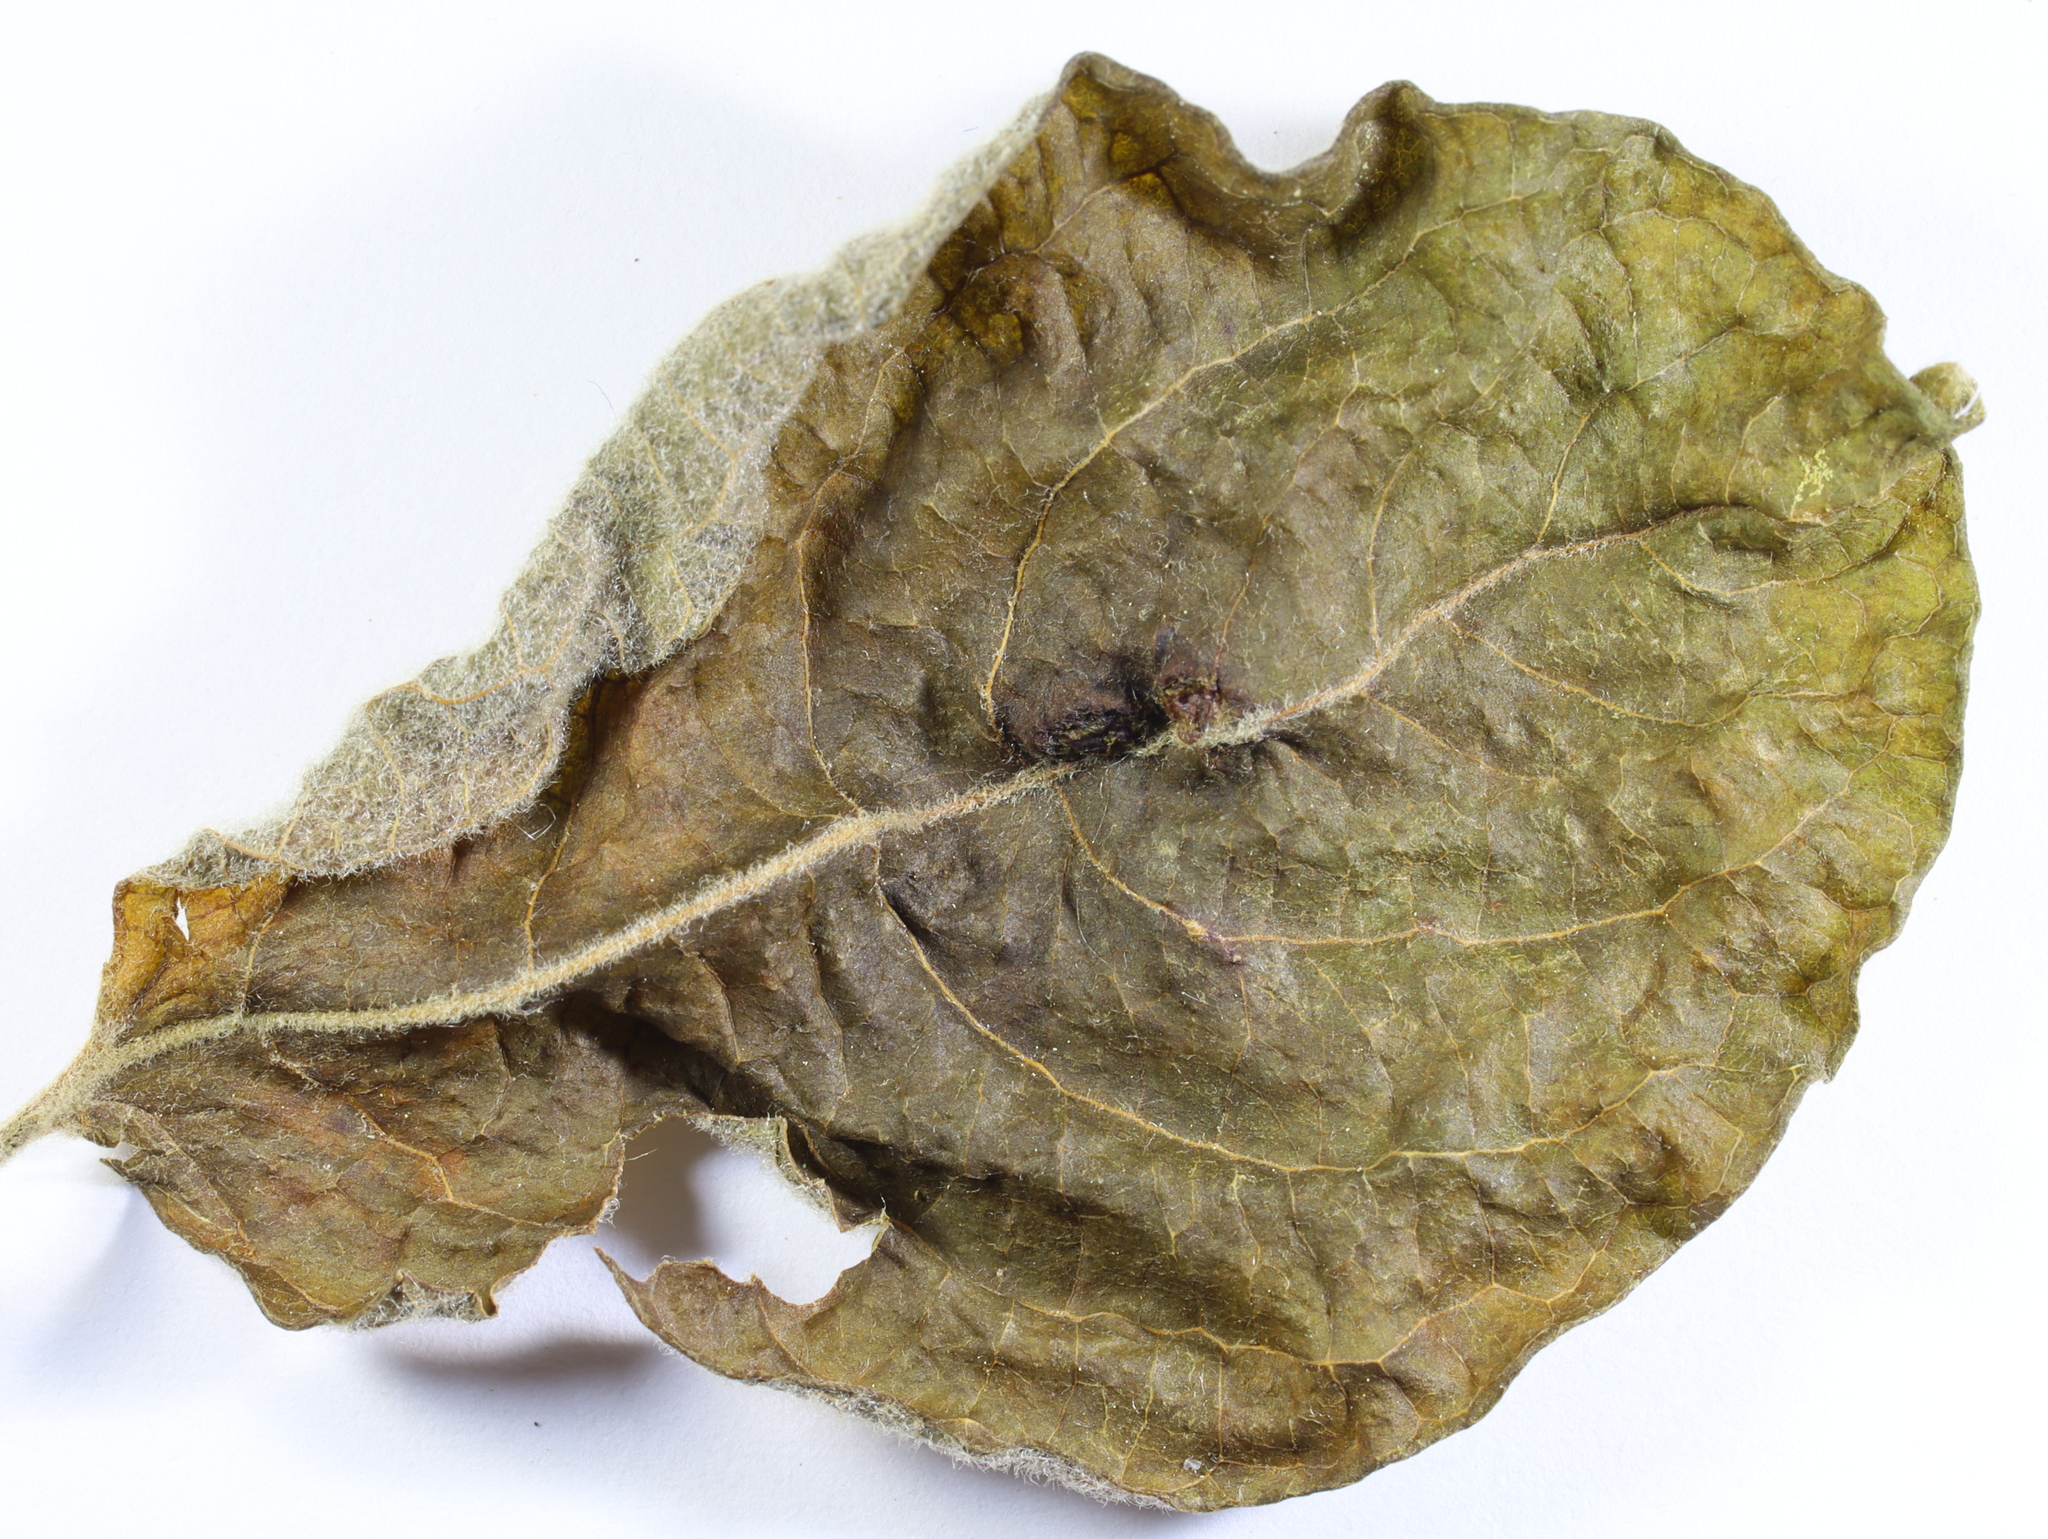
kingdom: Animalia
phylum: Arthropoda
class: Insecta
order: Hymenoptera
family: Tenthredinidae
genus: Pontania
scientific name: Pontania pedunculi
